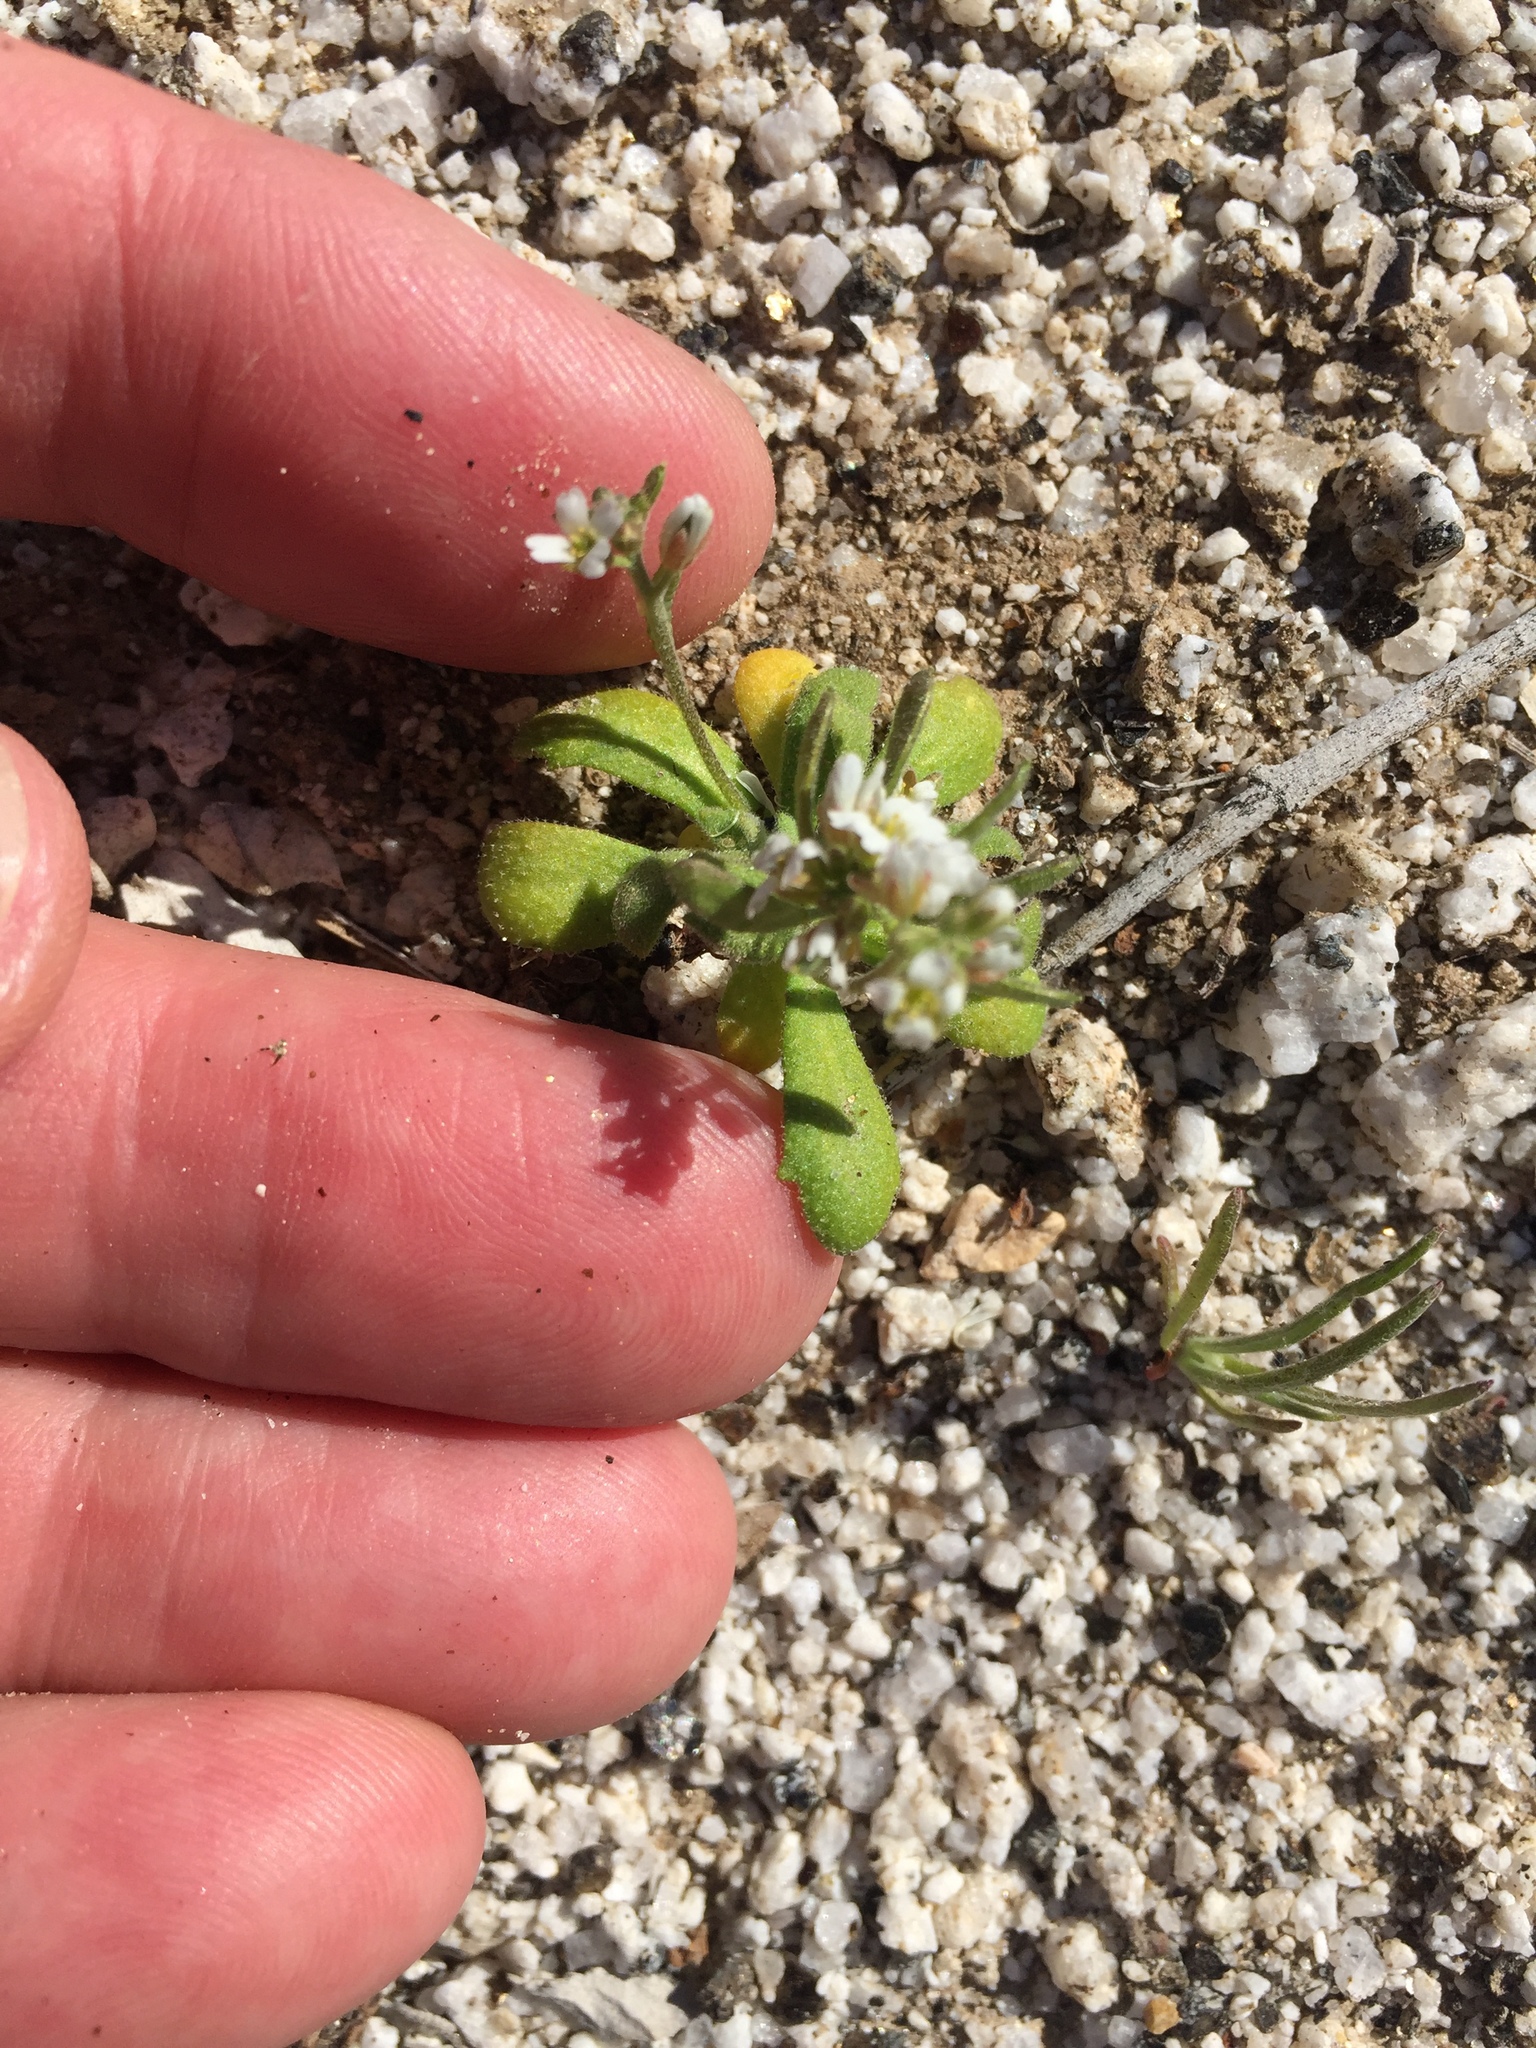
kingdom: Plantae
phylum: Tracheophyta
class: Magnoliopsida
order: Brassicales
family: Brassicaceae
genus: Tomostima
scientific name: Tomostima cuneifolia
